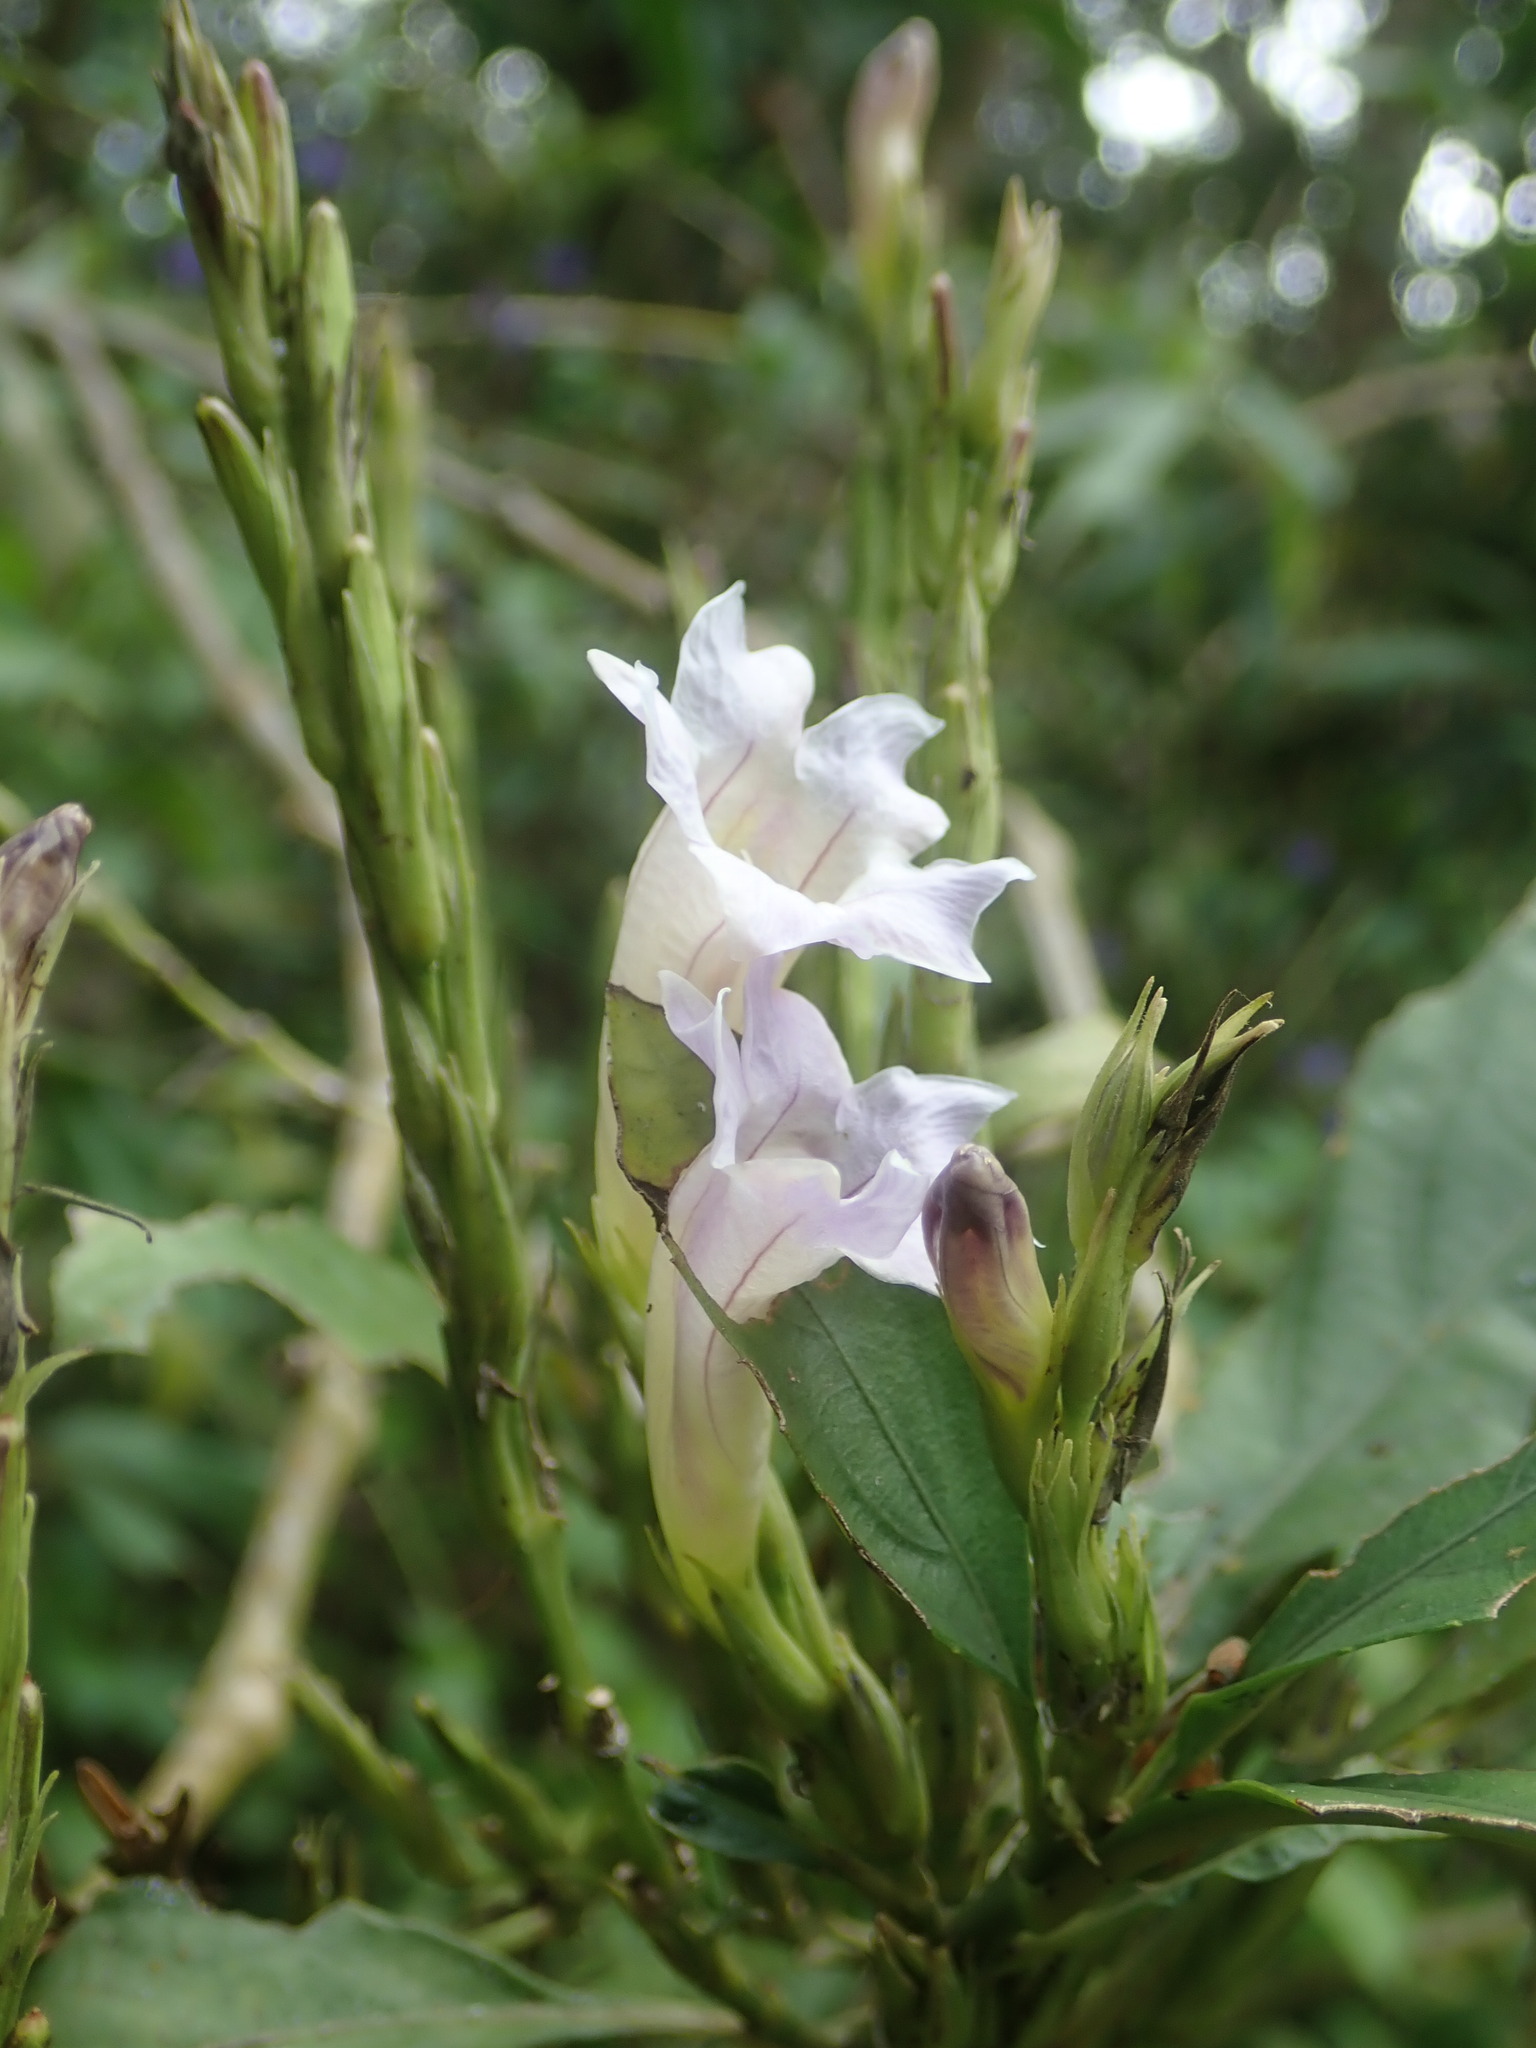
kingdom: Plantae
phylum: Tracheophyta
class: Magnoliopsida
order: Lamiales
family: Acanthaceae
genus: Strobilanthes
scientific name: Strobilanthes longespicata
